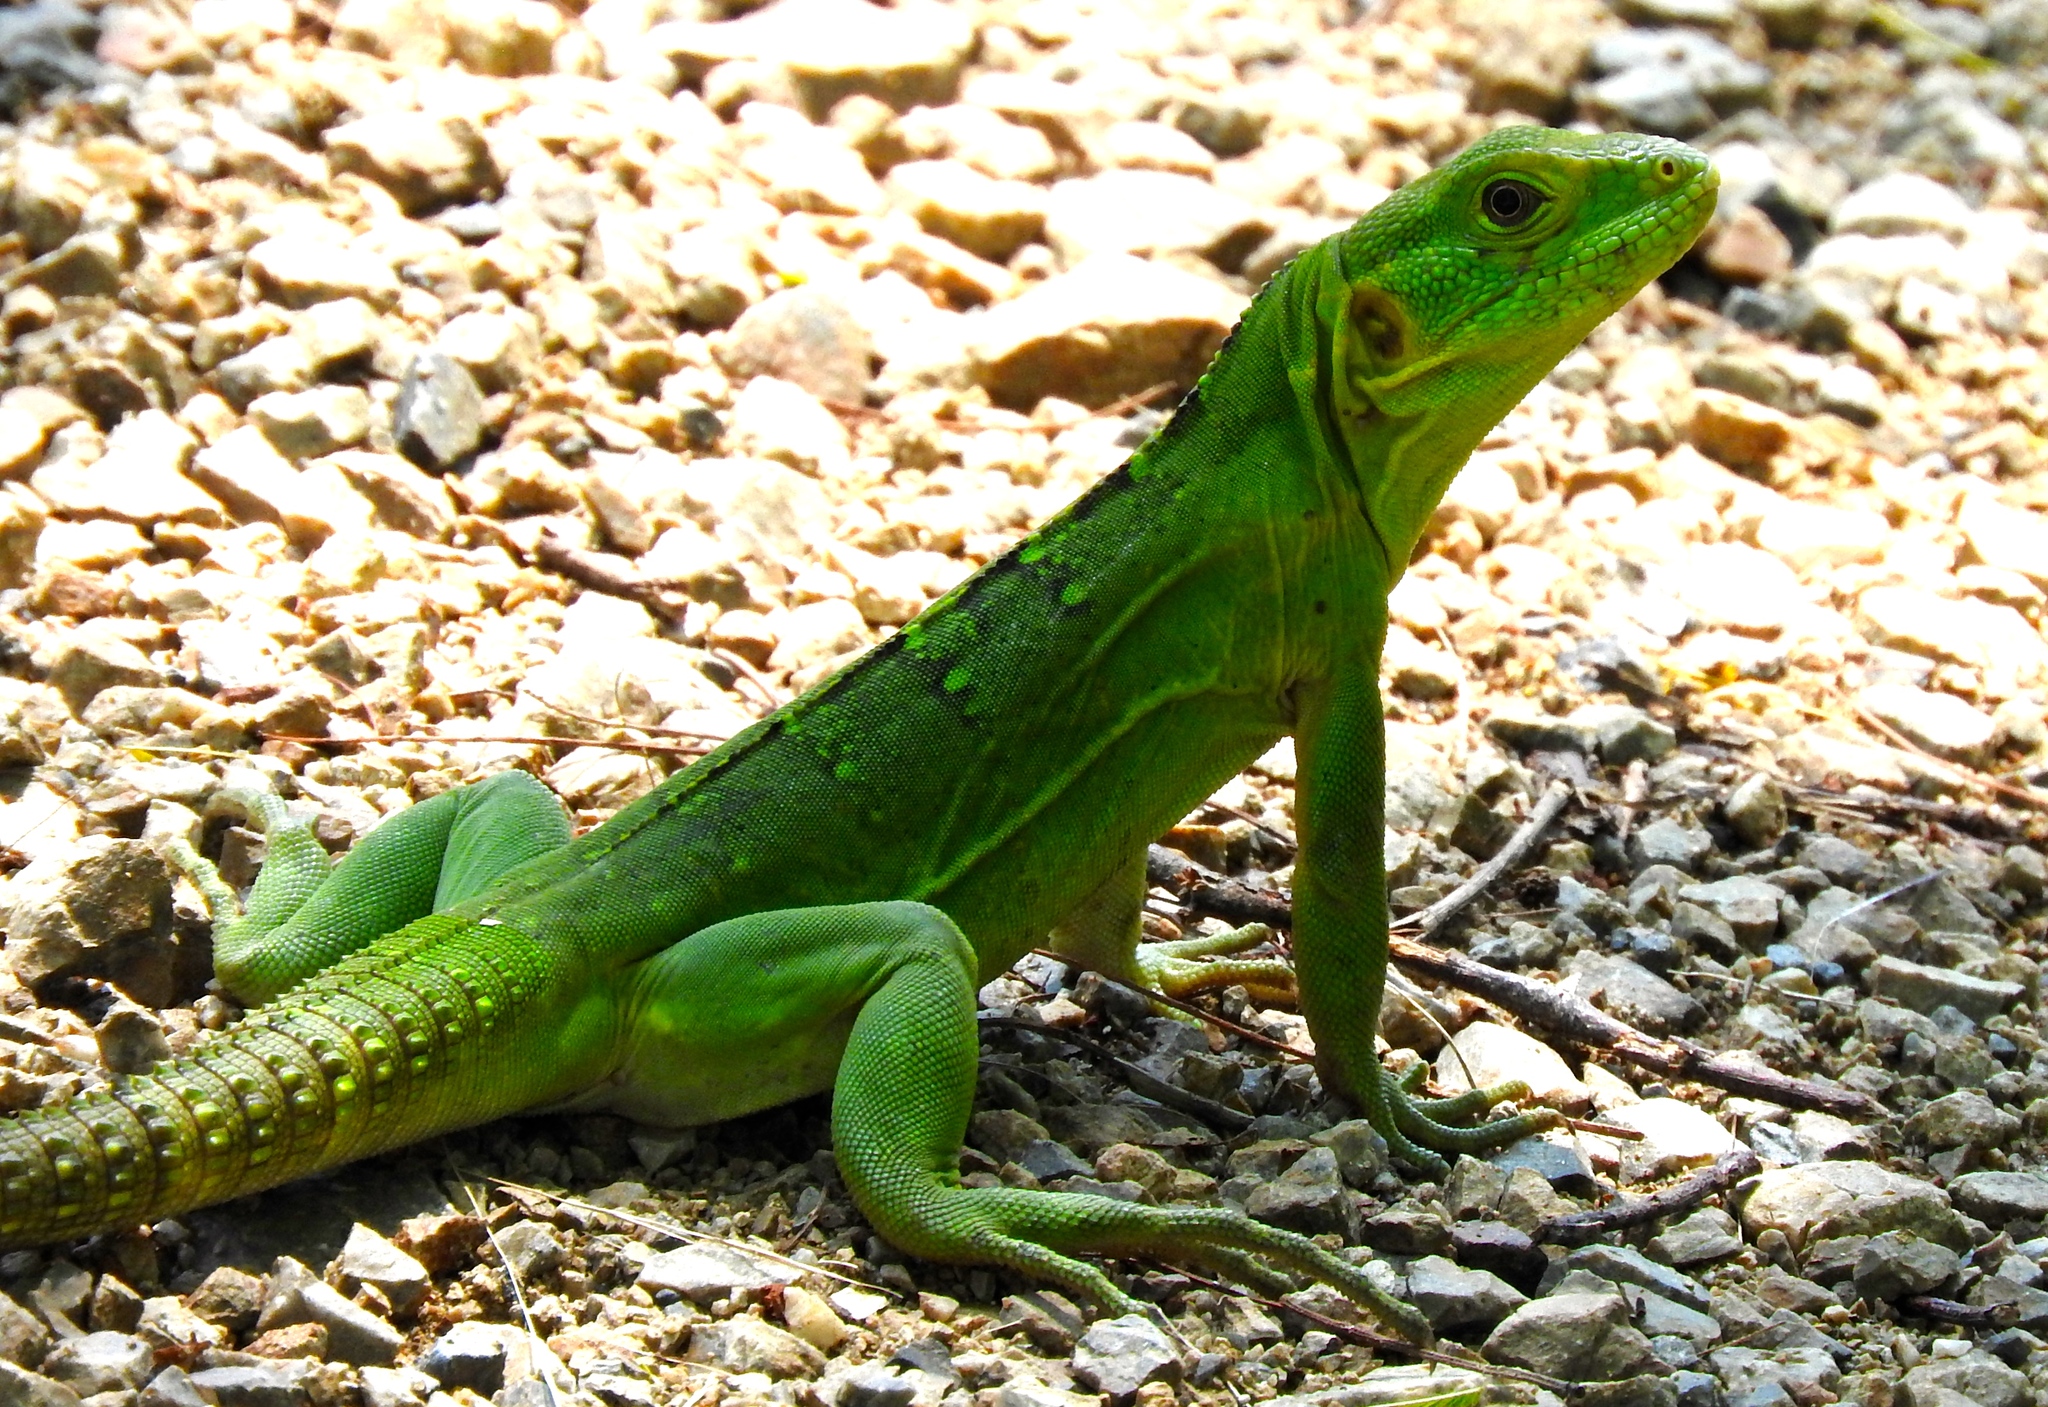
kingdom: Animalia
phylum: Chordata
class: Squamata
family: Iguanidae
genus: Ctenosaura
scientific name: Ctenosaura pectinata
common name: Guerreran spiny-tailed iguana
